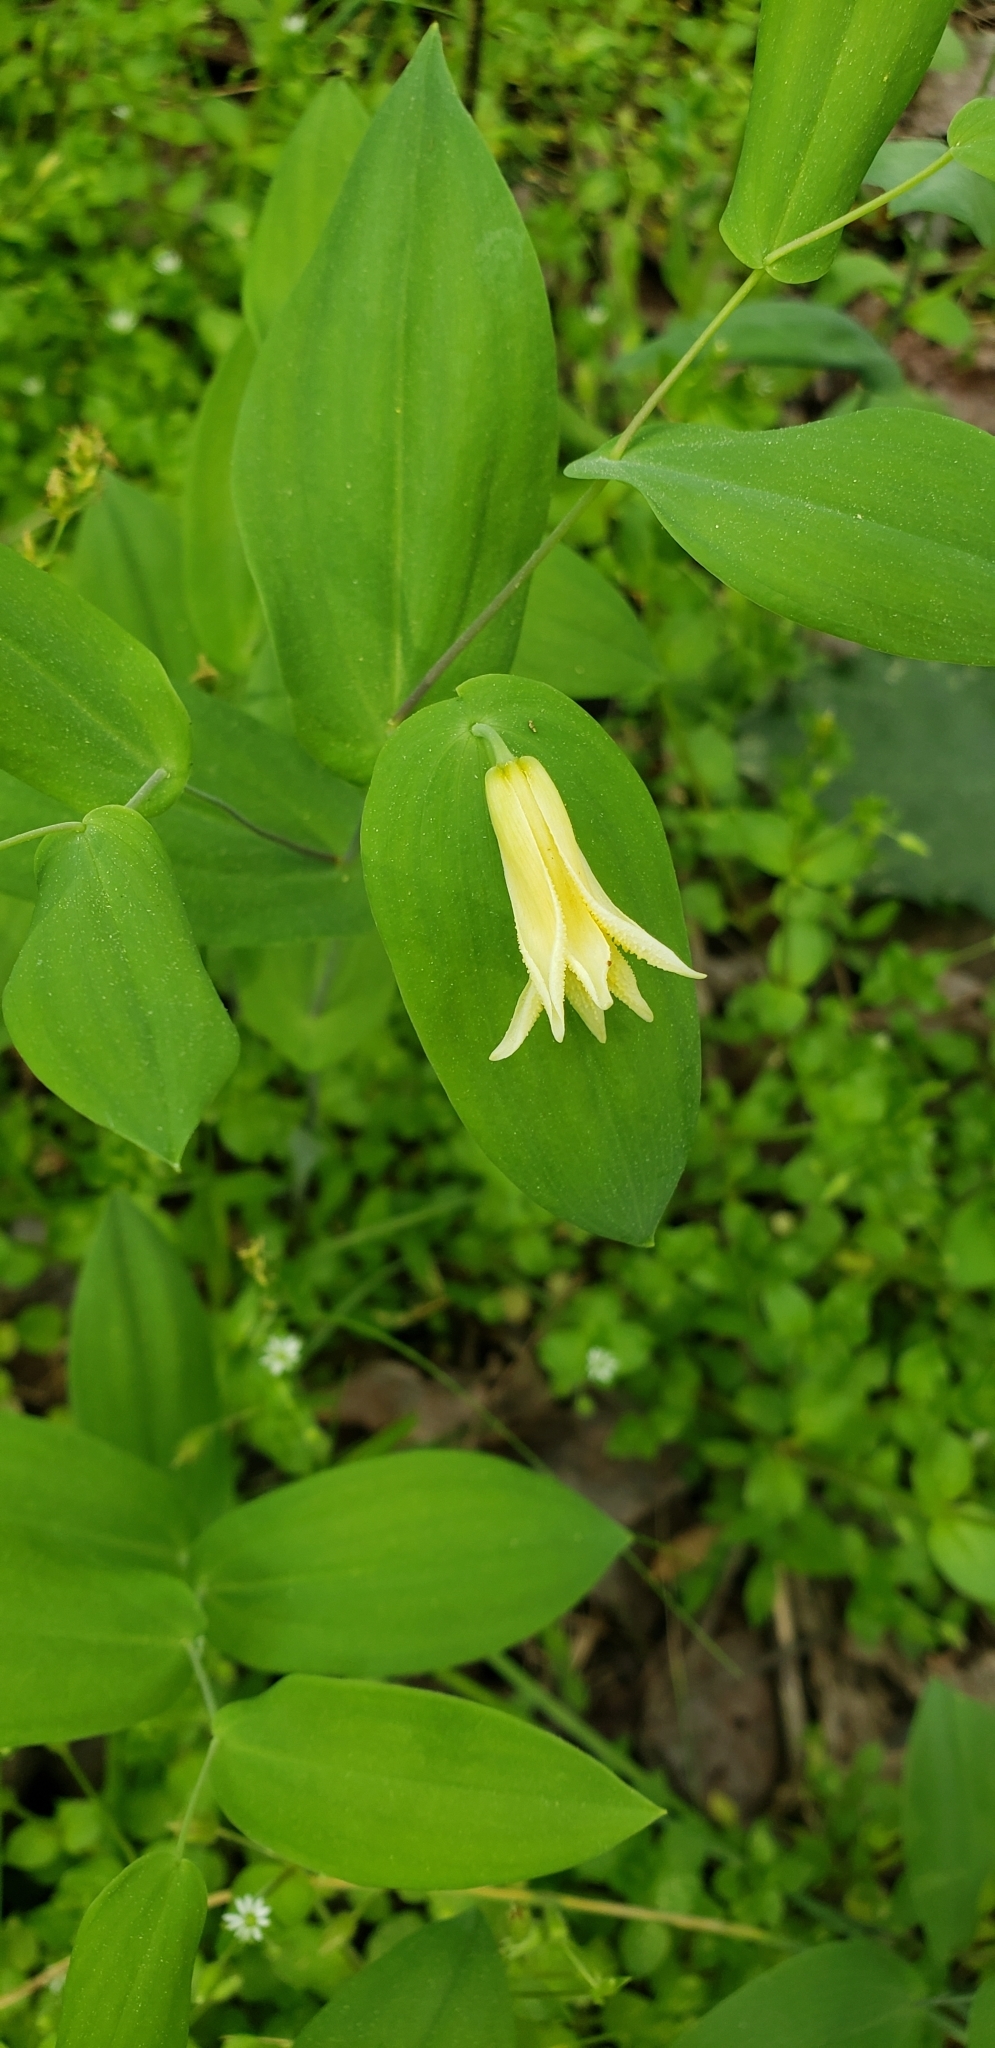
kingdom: Plantae
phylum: Tracheophyta
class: Liliopsida
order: Liliales
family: Colchicaceae
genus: Uvularia
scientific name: Uvularia perfoliata
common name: Perfoliate bellwort
